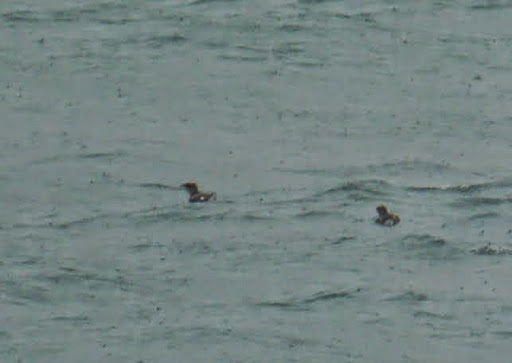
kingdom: Animalia
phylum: Chordata
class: Aves
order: Charadriiformes
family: Alcidae
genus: Brachyramphus
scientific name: Brachyramphus marmoratus
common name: Marbled murrelet
